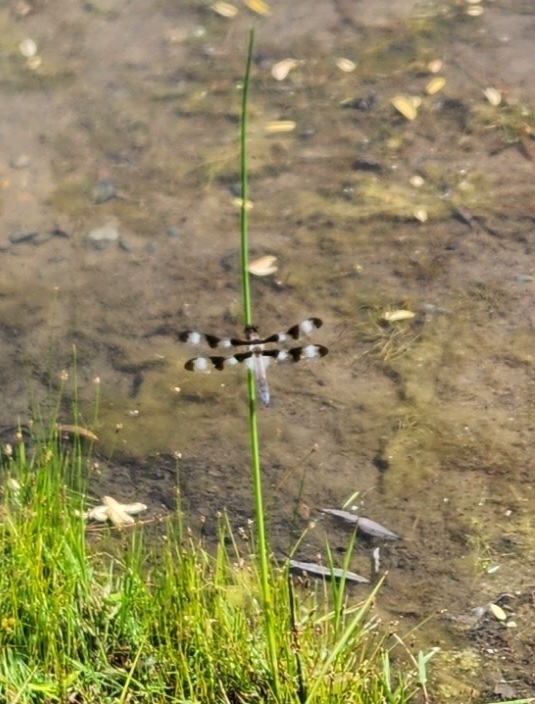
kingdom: Animalia
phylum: Arthropoda
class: Insecta
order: Odonata
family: Libellulidae
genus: Libellula
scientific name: Libellula pulchella
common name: Twelve-spotted skimmer
